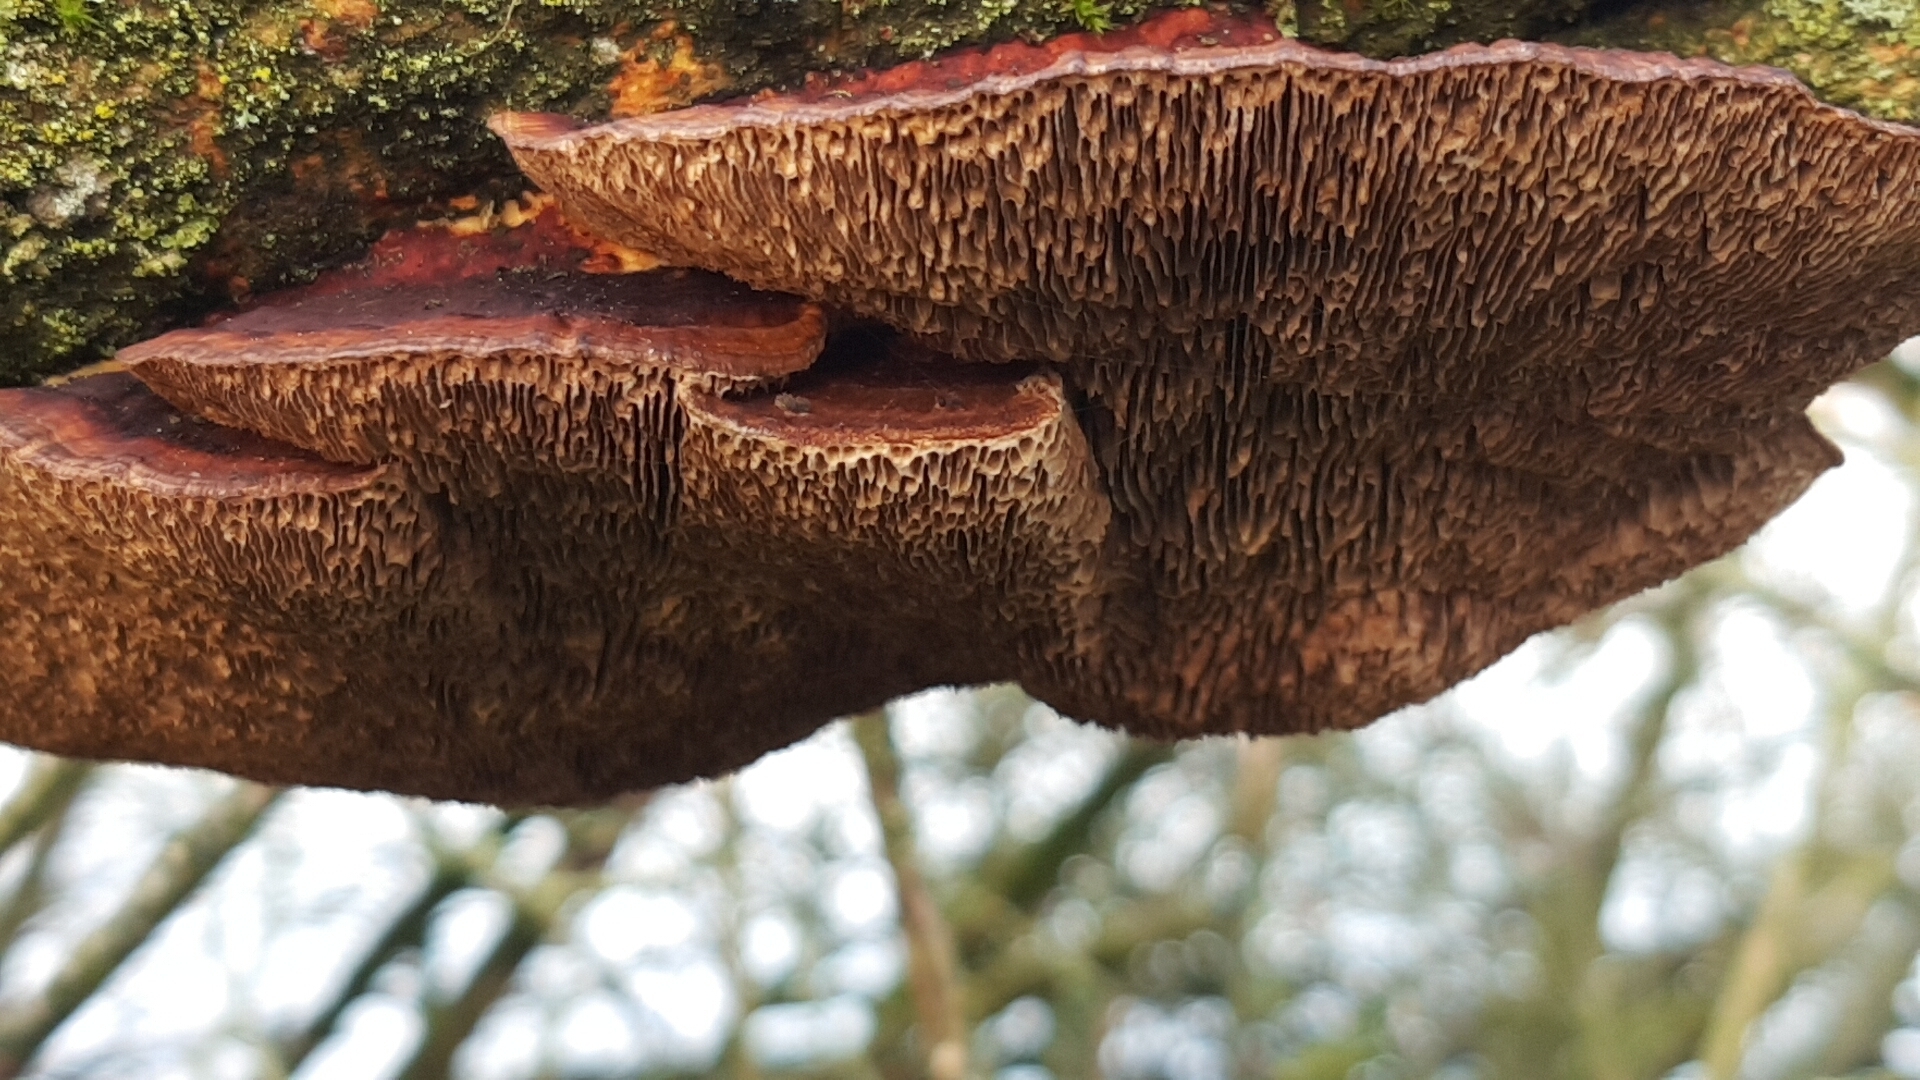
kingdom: Fungi
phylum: Basidiomycota
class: Agaricomycetes
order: Polyporales
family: Polyporaceae
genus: Daedaleopsis
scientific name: Daedaleopsis confragosa
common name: Blushing bracket
